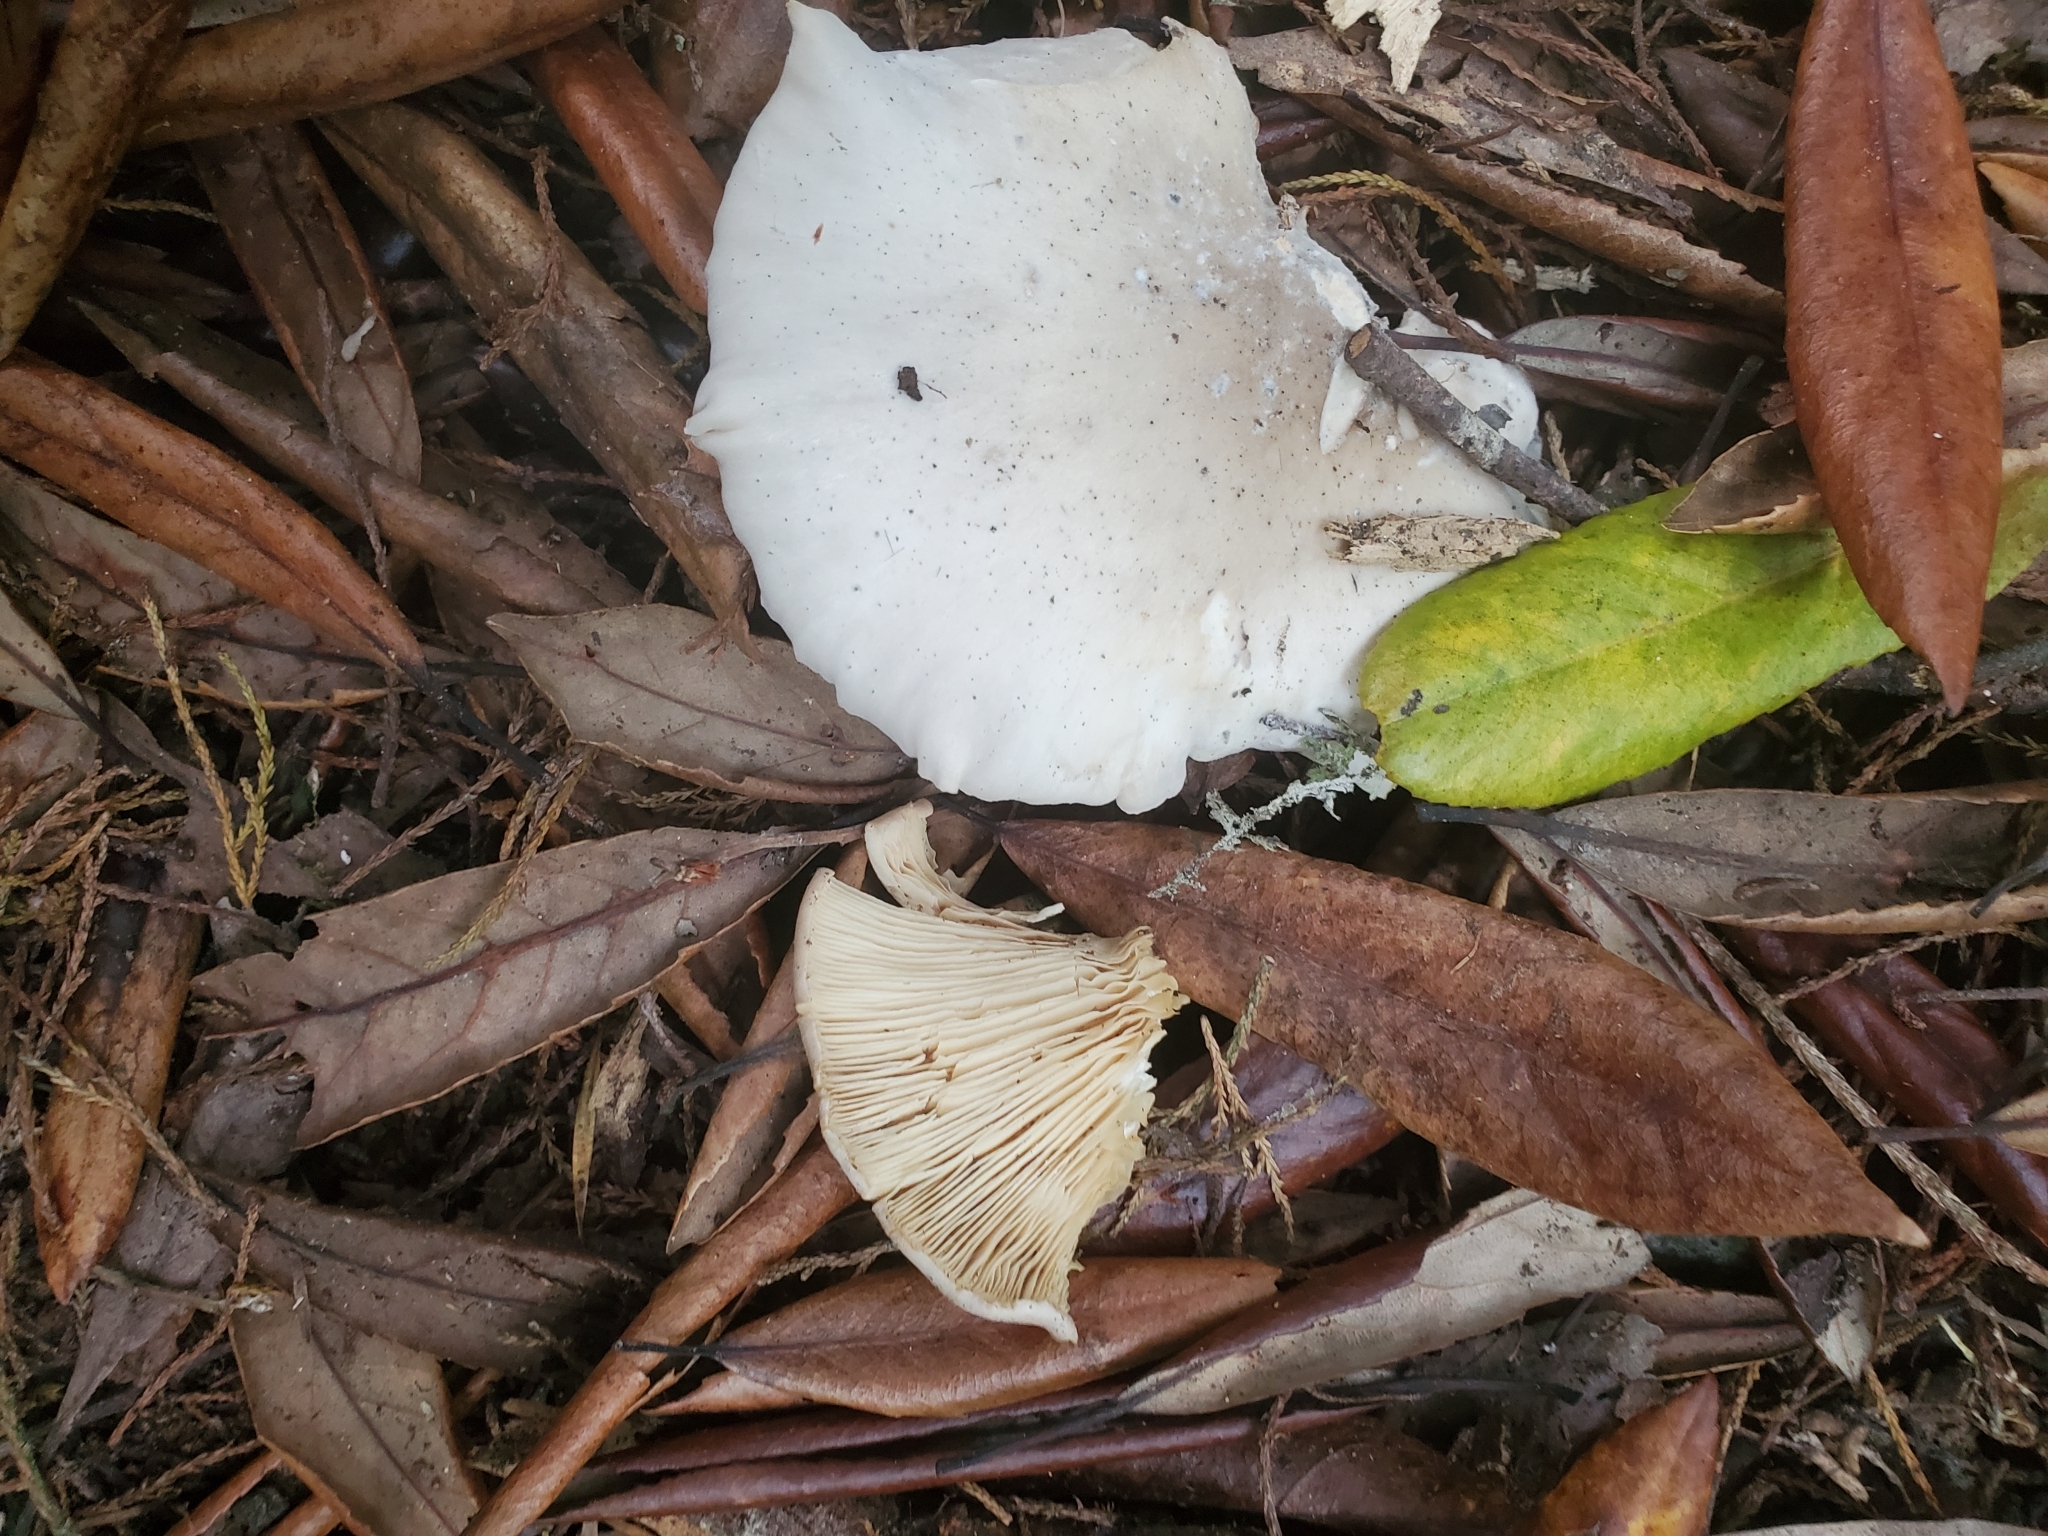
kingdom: Fungi
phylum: Basidiomycota
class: Agaricomycetes
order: Agaricales
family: Tricholomataceae
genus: Clitocybe
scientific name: Clitocybe nebularis
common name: Clouded agaric
